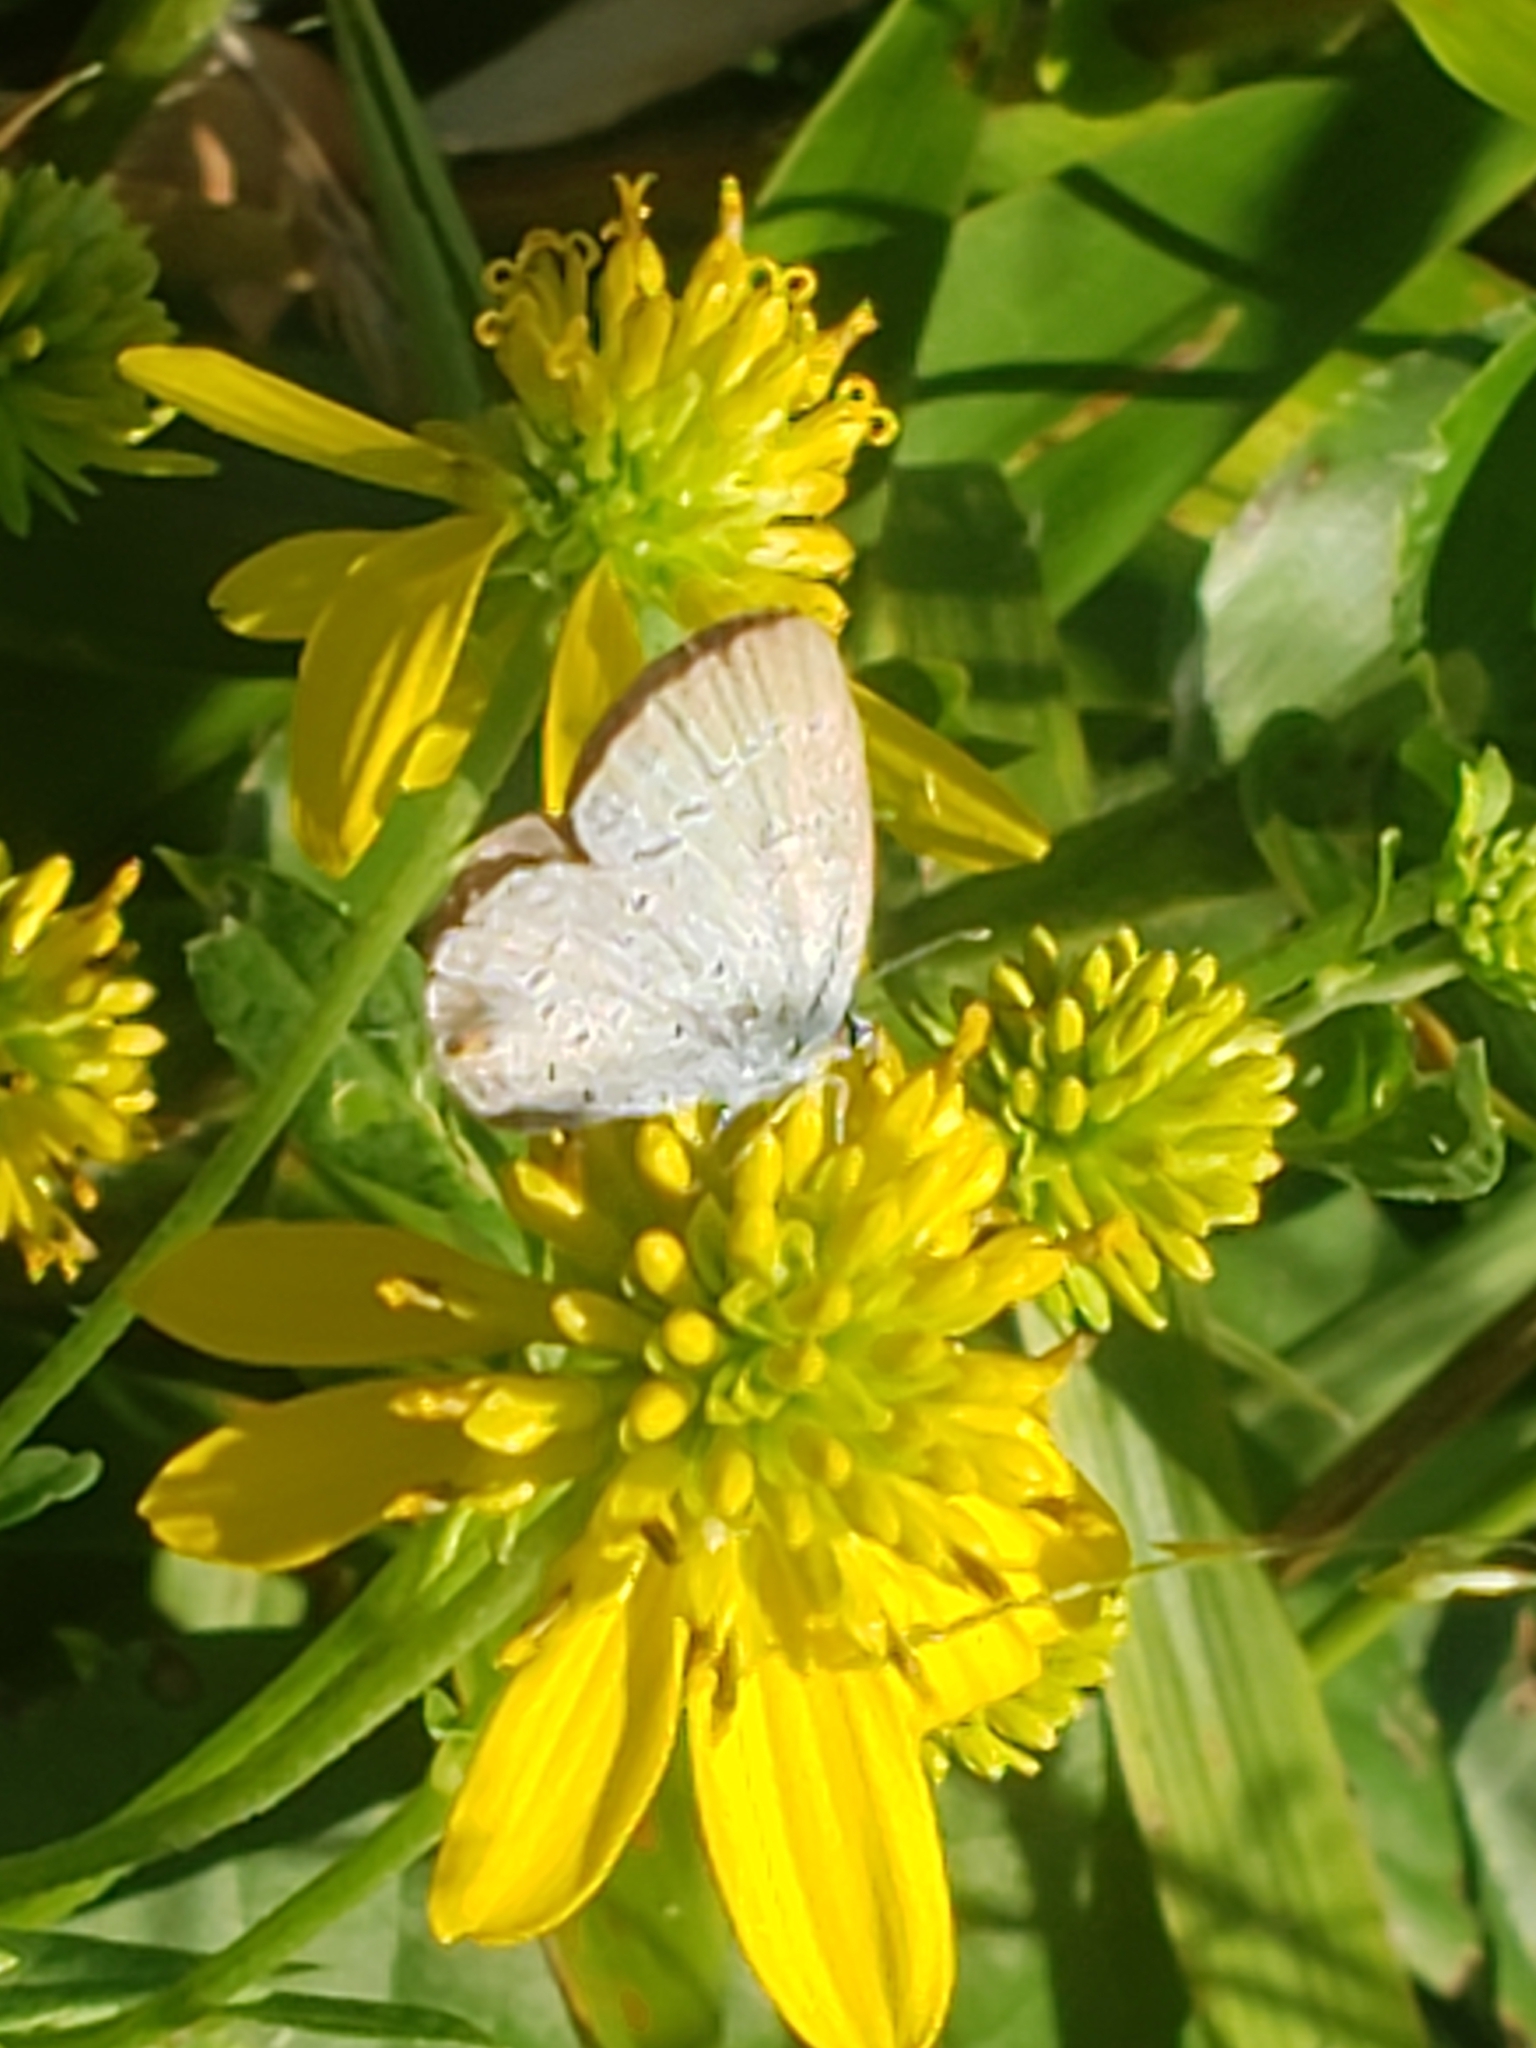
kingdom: Animalia
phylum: Arthropoda
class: Insecta
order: Lepidoptera
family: Lycaenidae
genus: Elkalyce
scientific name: Elkalyce comyntas
